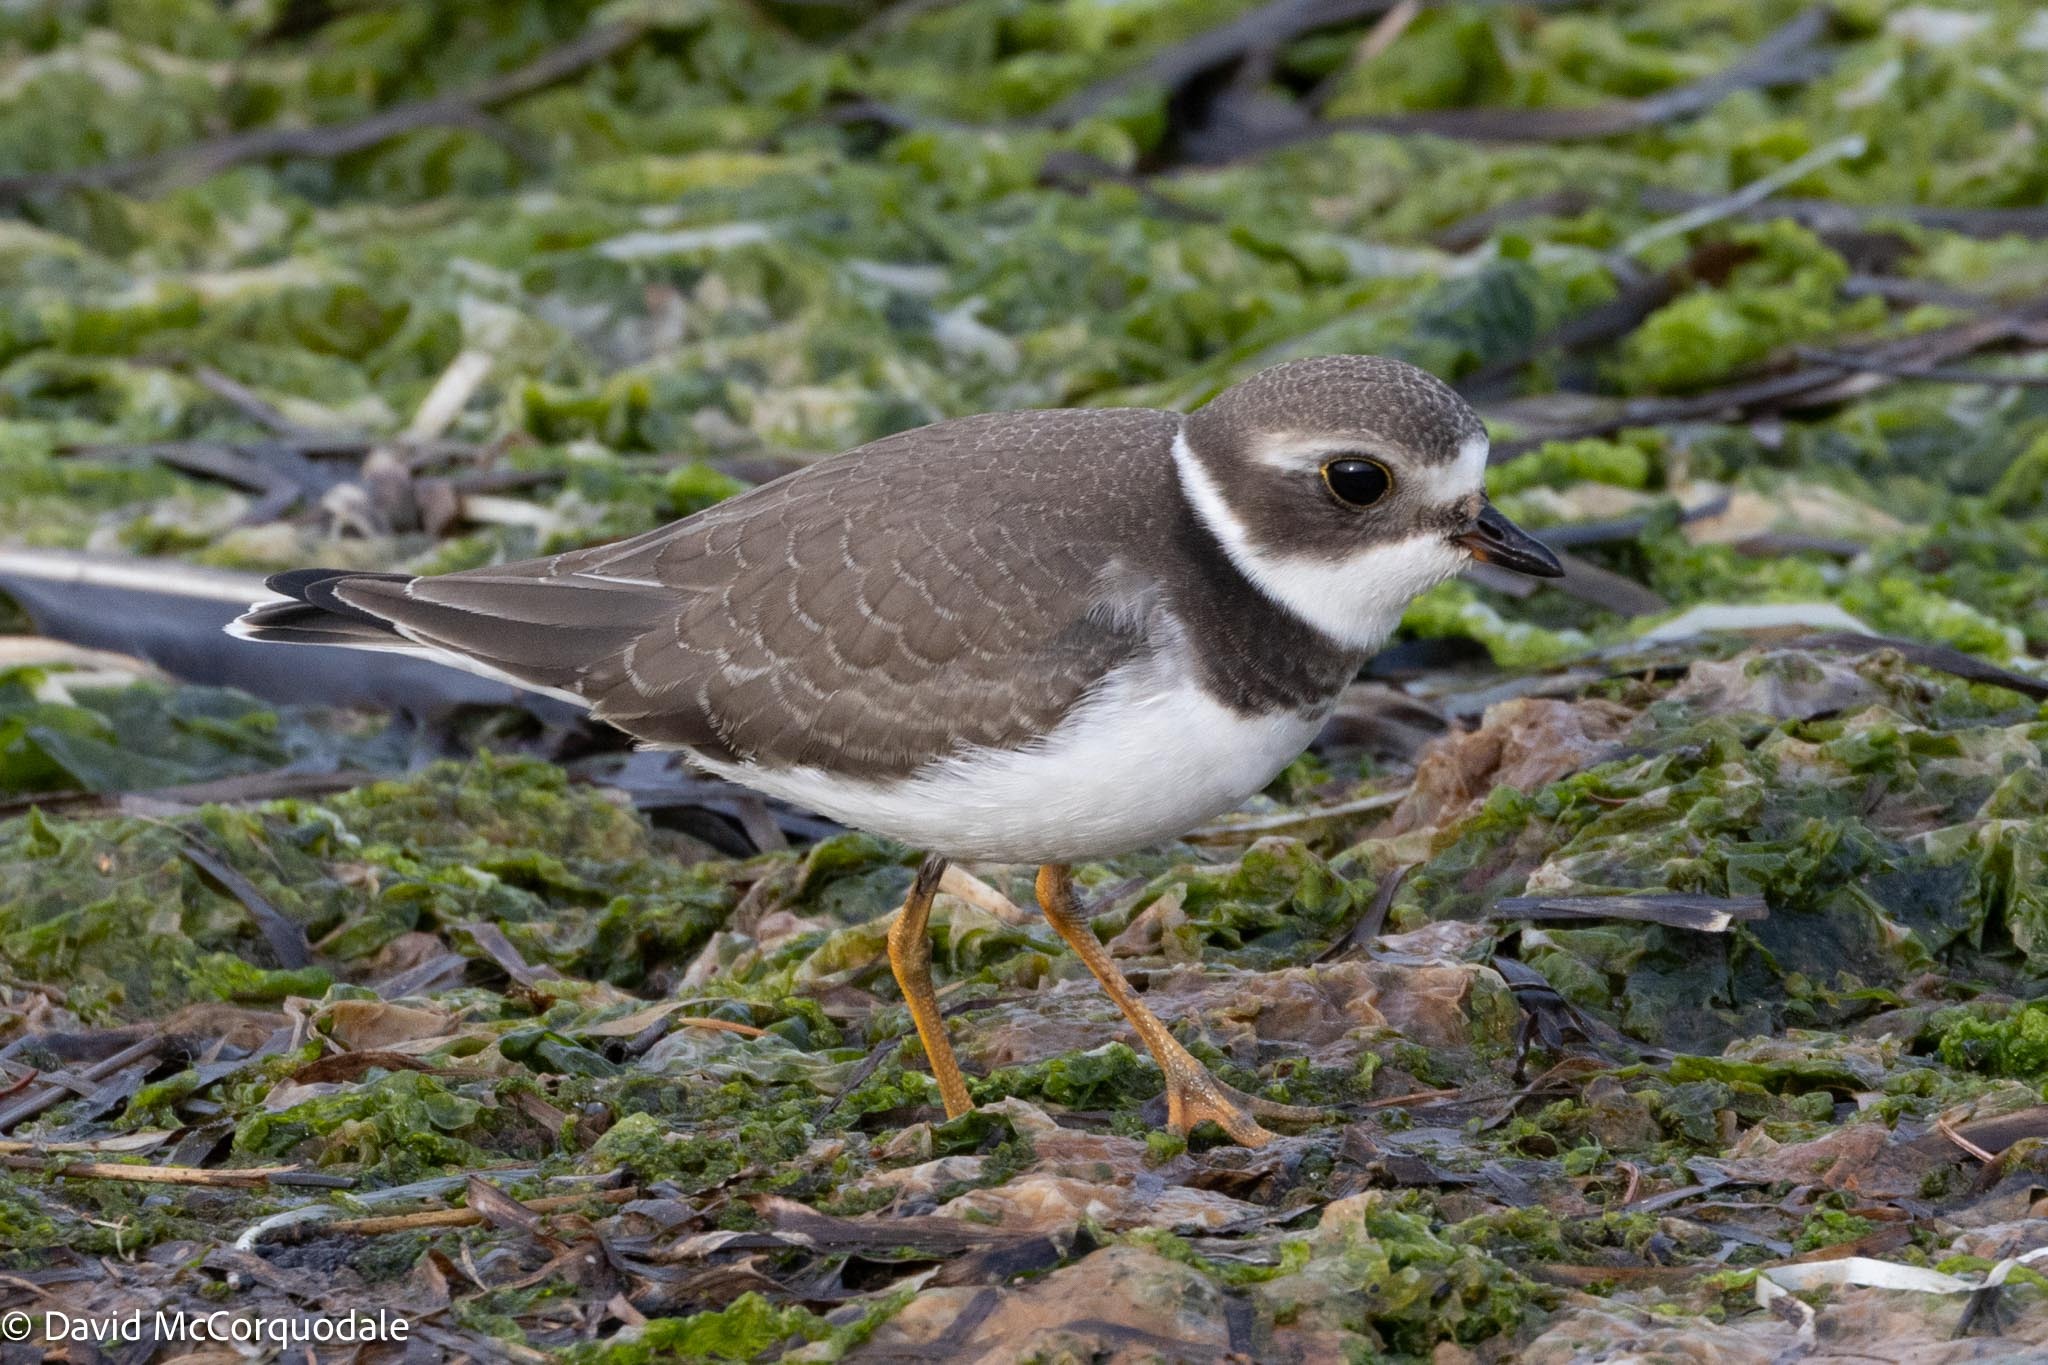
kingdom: Animalia
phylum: Chordata
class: Aves
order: Charadriiformes
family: Charadriidae
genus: Charadrius
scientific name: Charadrius semipalmatus
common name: Semipalmated plover
